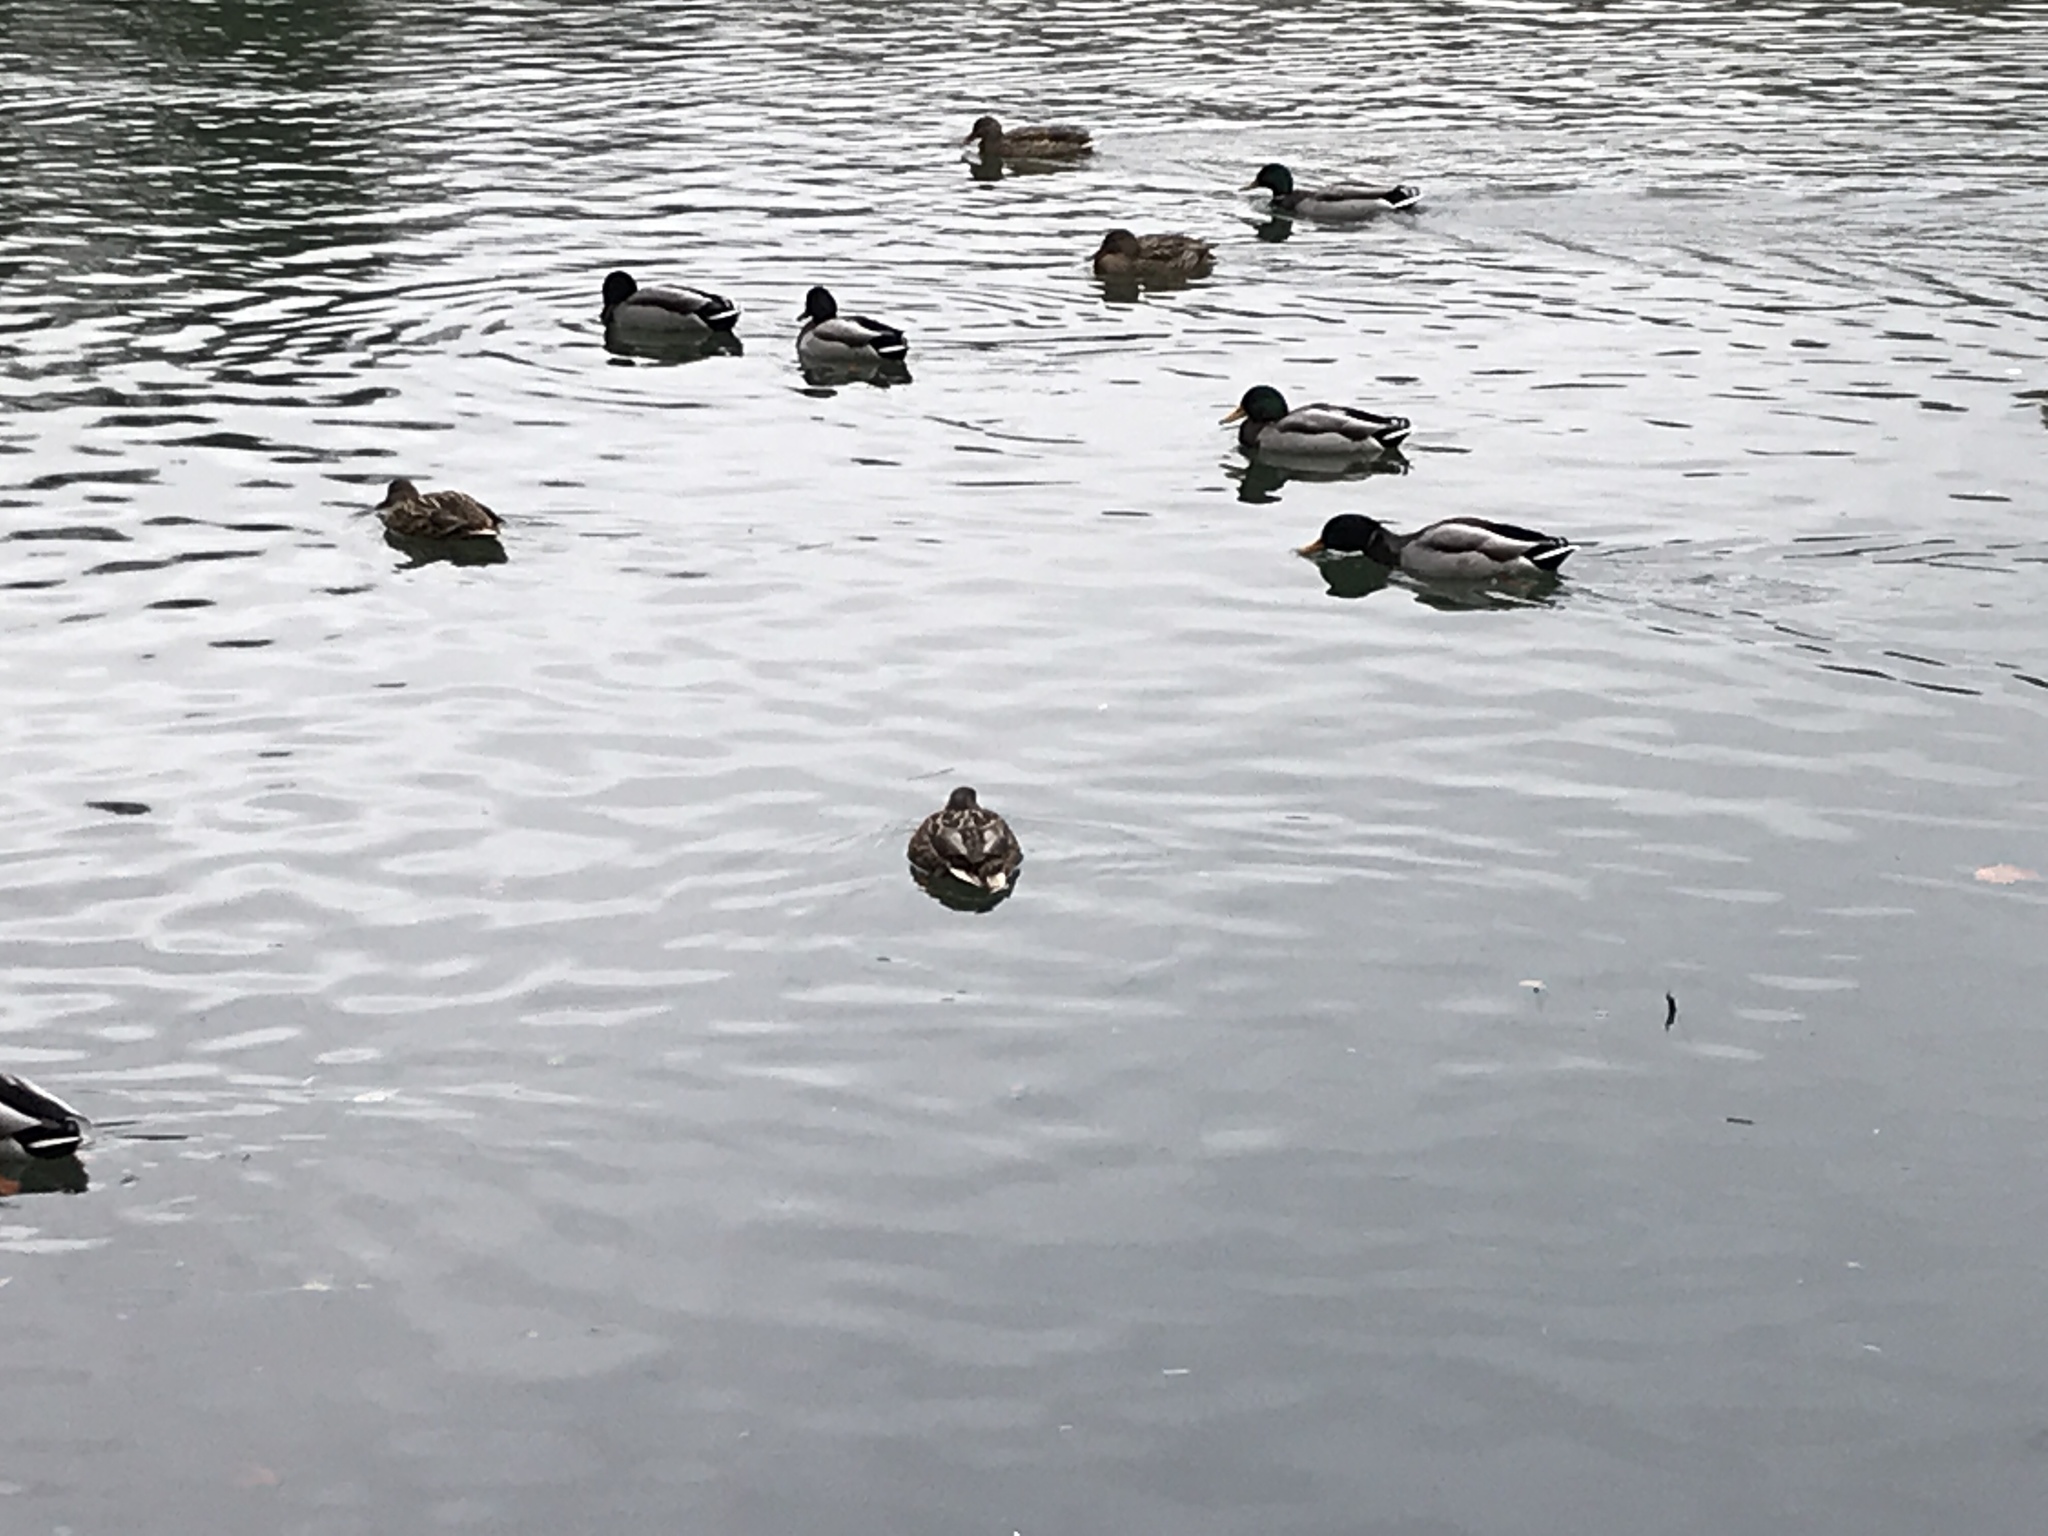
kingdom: Animalia
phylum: Chordata
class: Aves
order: Anseriformes
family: Anatidae
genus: Anas
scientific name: Anas platyrhynchos
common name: Mallard
